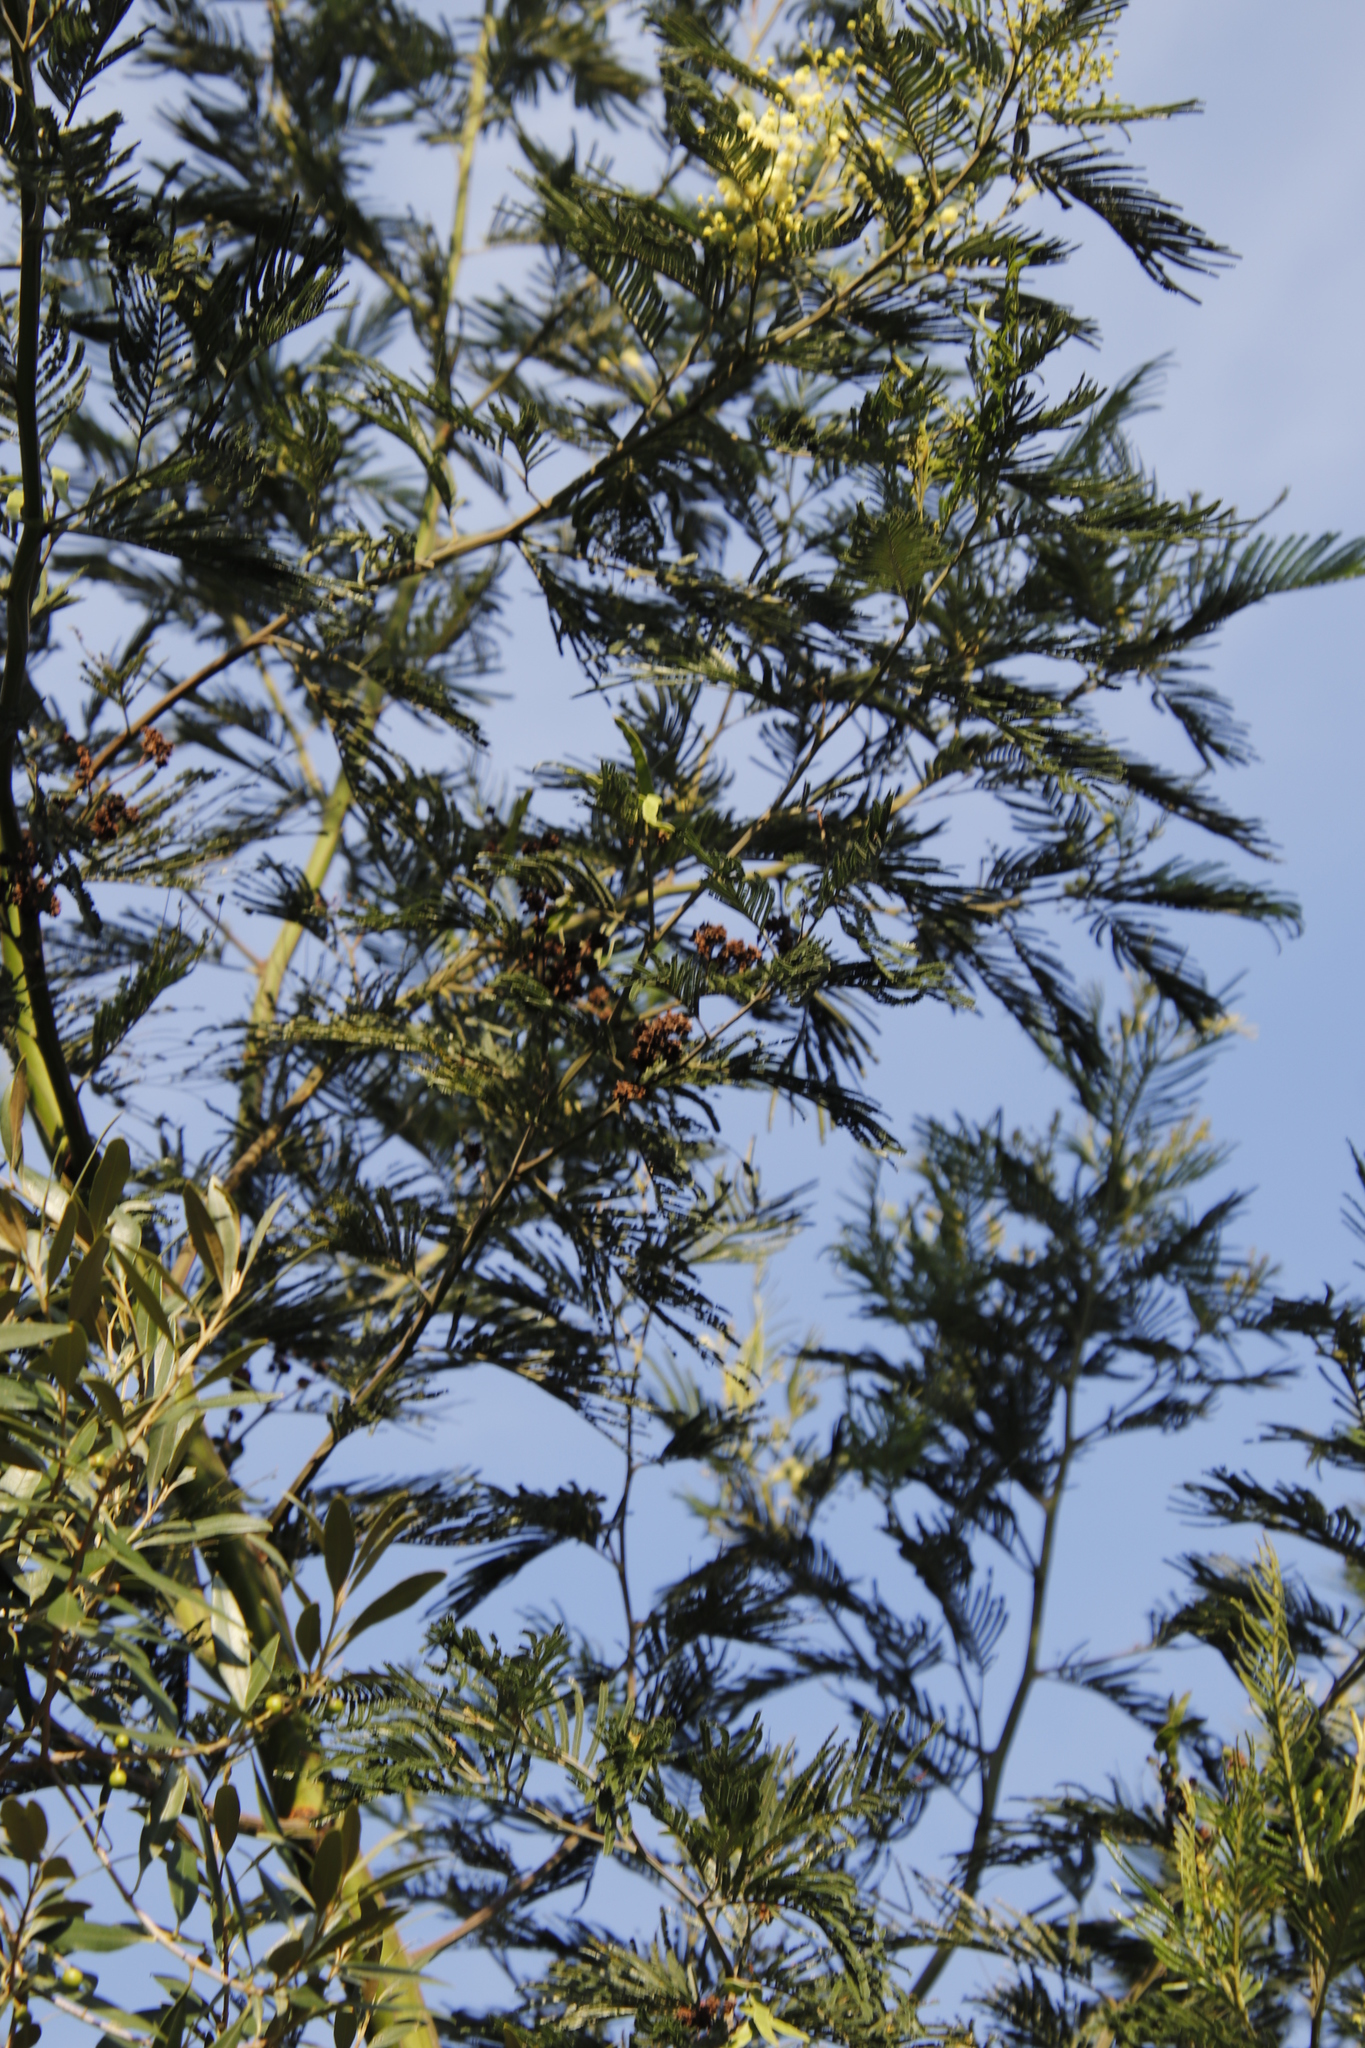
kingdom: Animalia
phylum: Arthropoda
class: Insecta
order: Diptera
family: Cecidomyiidae
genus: Dasineura
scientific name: Dasineura rubiformis
